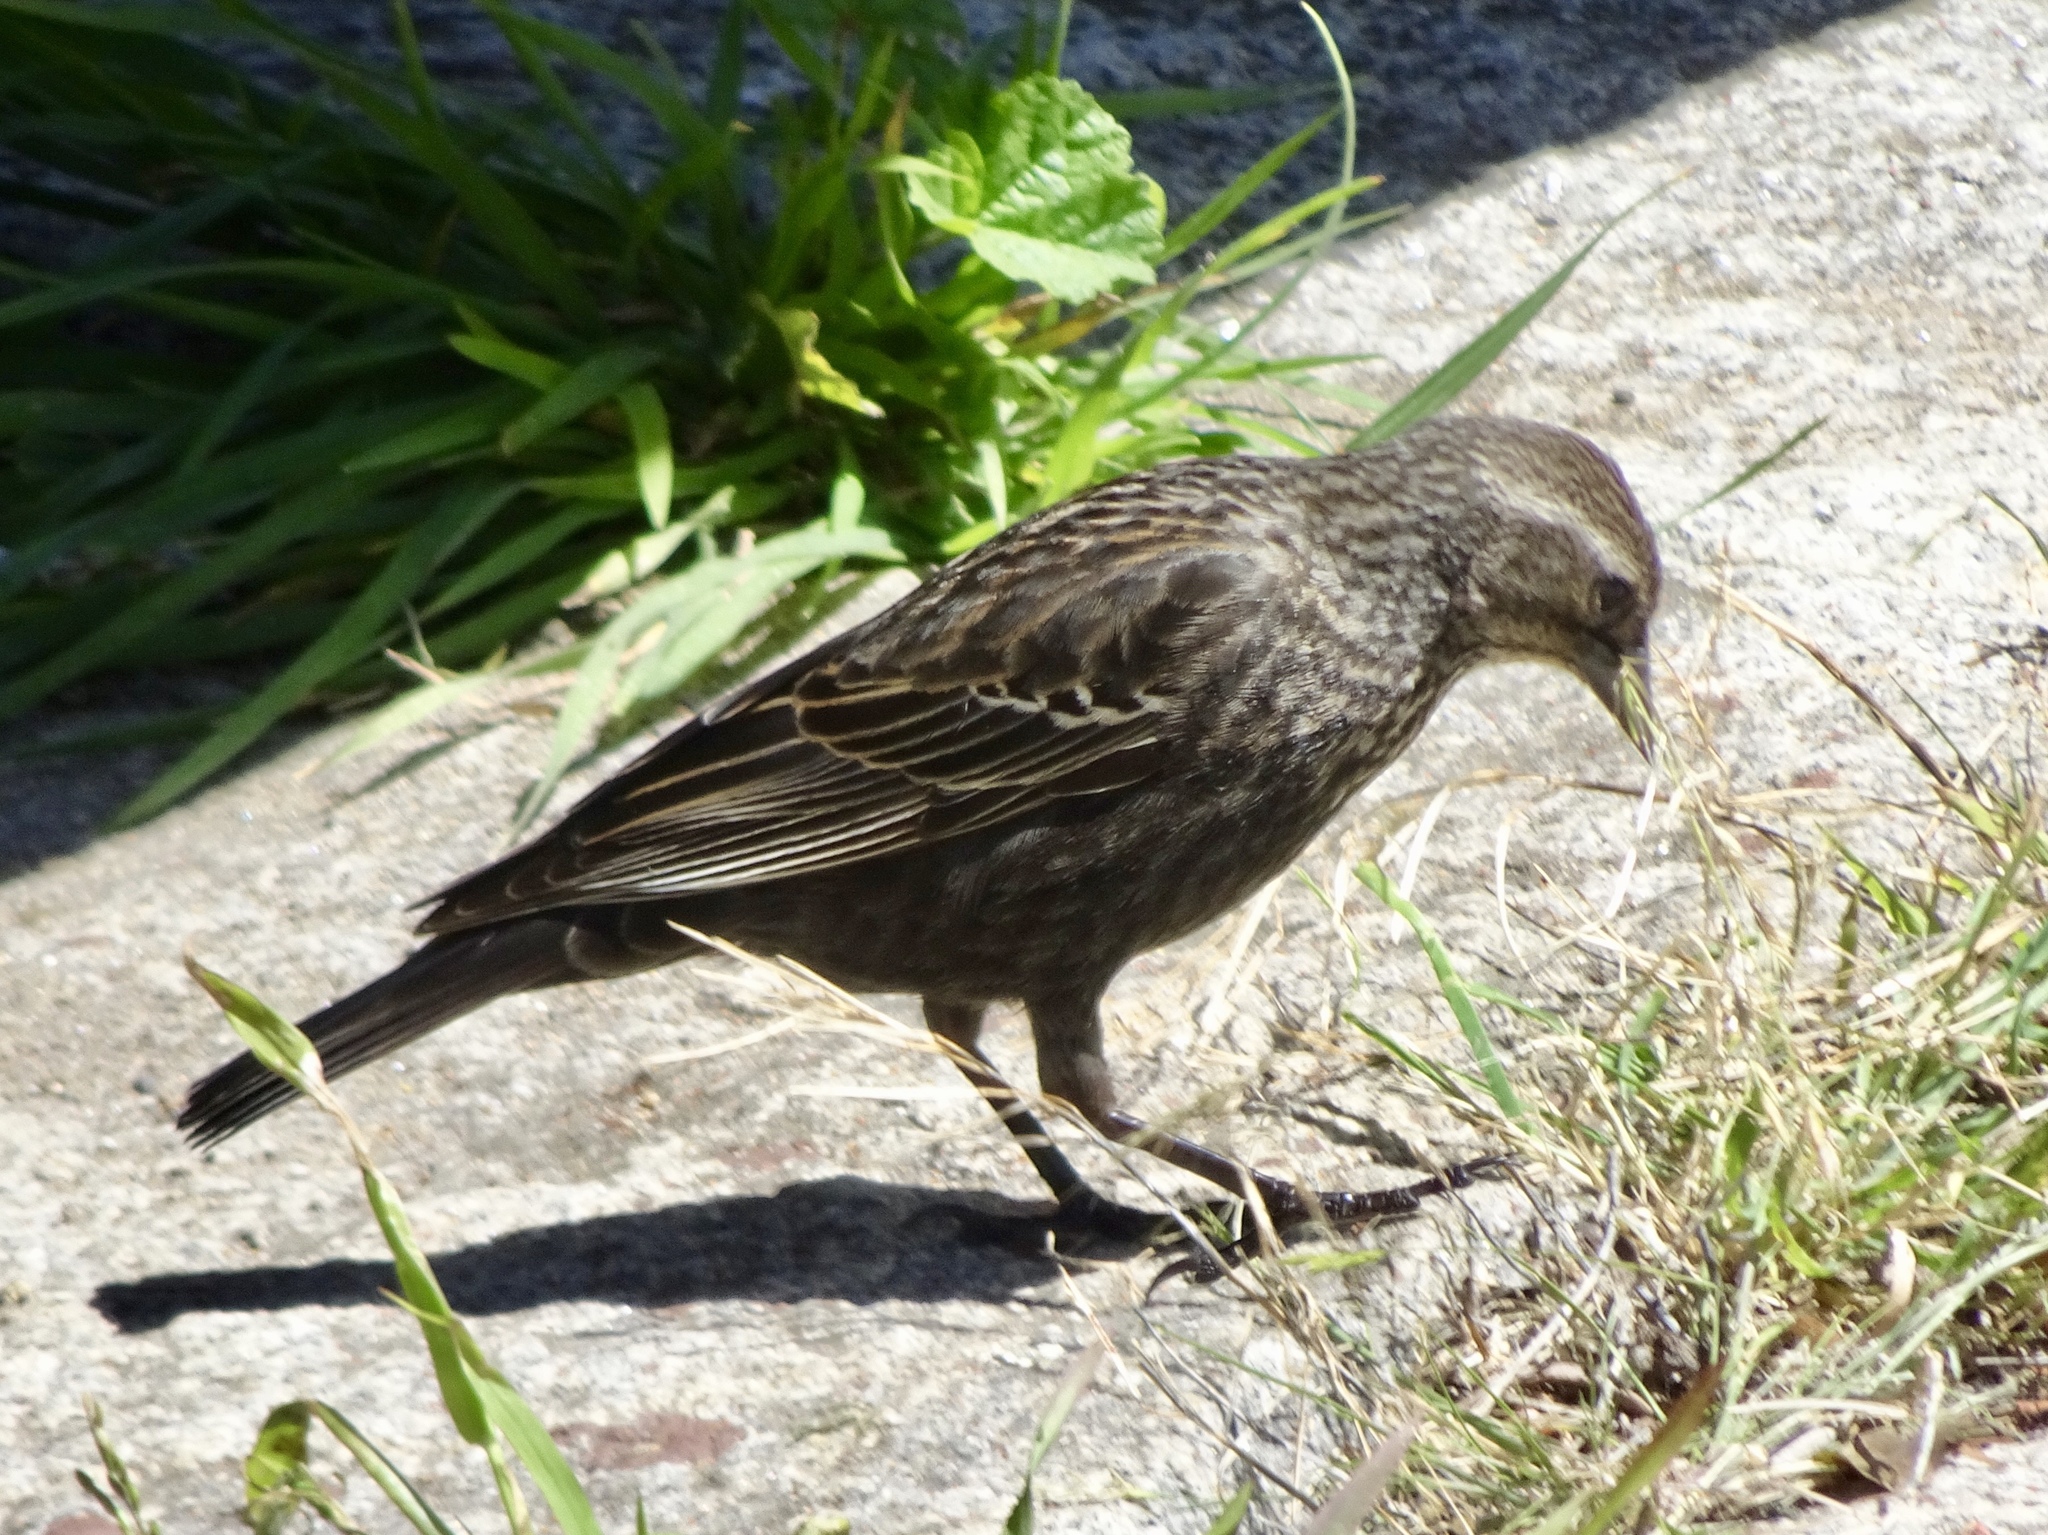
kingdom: Animalia
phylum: Chordata
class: Aves
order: Passeriformes
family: Icteridae
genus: Agelaius
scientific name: Agelaius phoeniceus
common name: Red-winged blackbird
